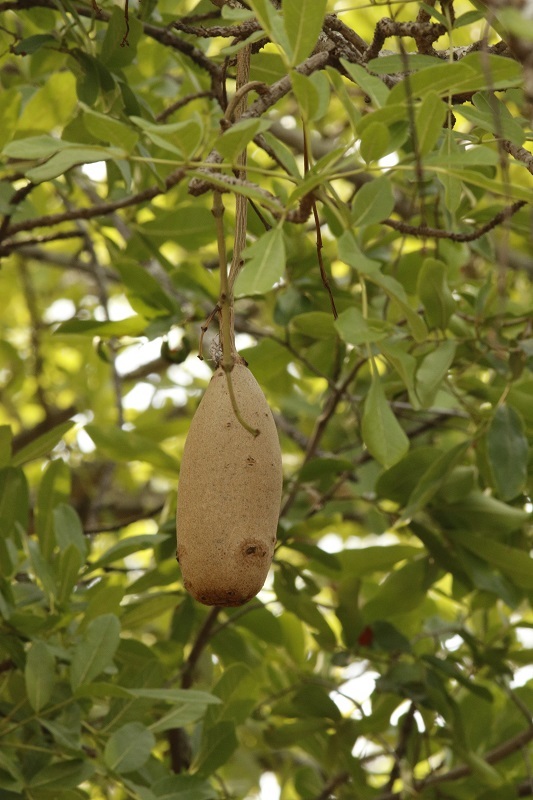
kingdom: Plantae
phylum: Tracheophyta
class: Magnoliopsida
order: Lamiales
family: Bignoniaceae
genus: Kigelia
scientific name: Kigelia africana
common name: Sausage tree
